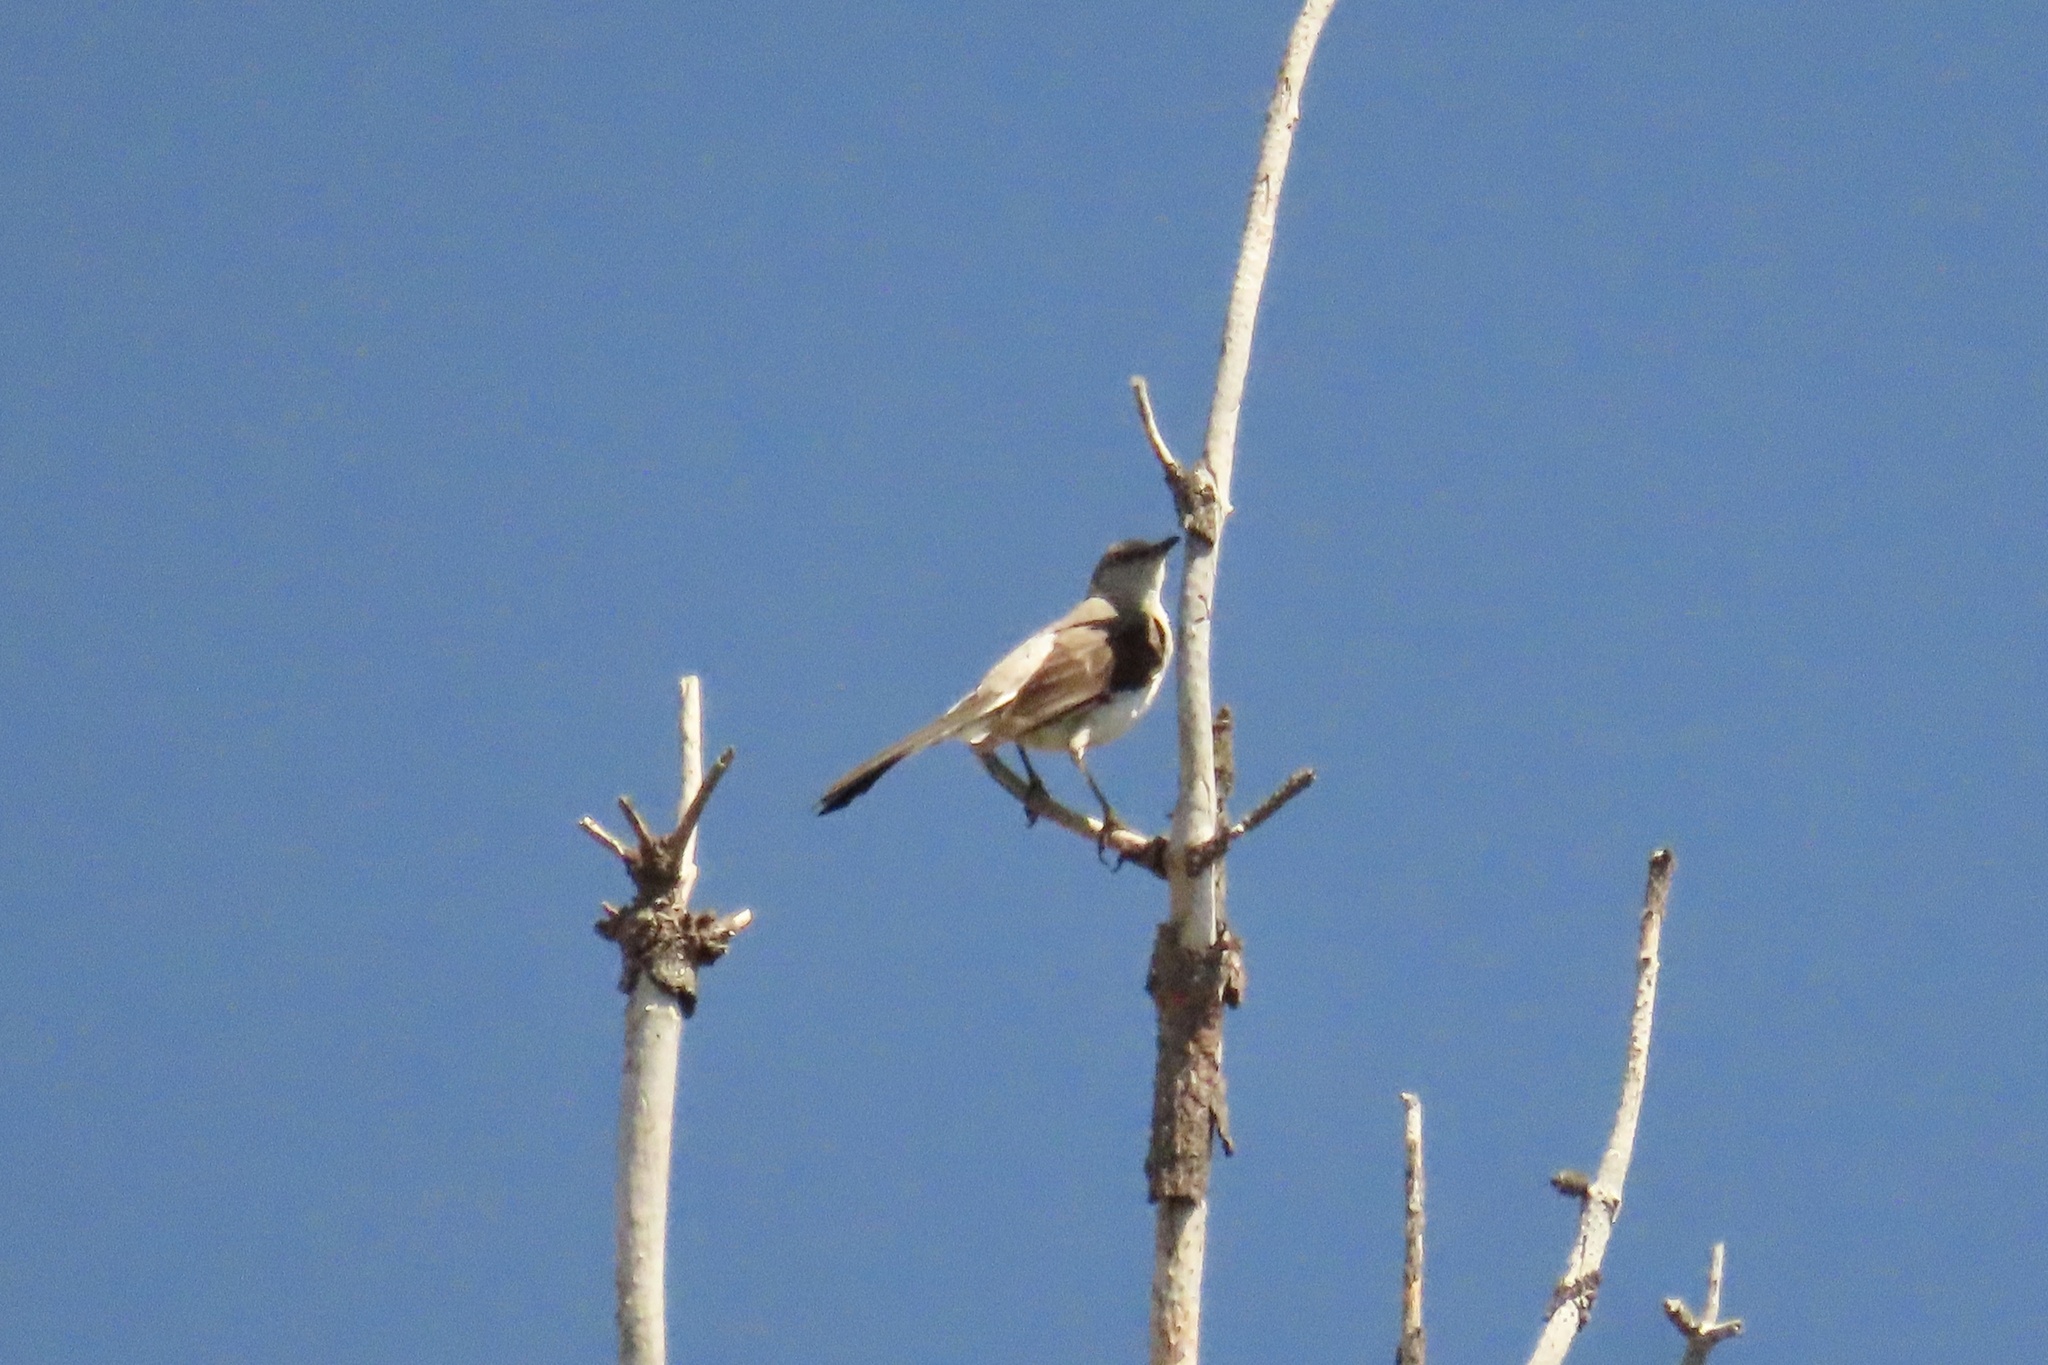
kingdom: Animalia
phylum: Chordata
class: Aves
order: Passeriformes
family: Mimidae
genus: Mimus
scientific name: Mimus polyglottos
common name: Northern mockingbird
